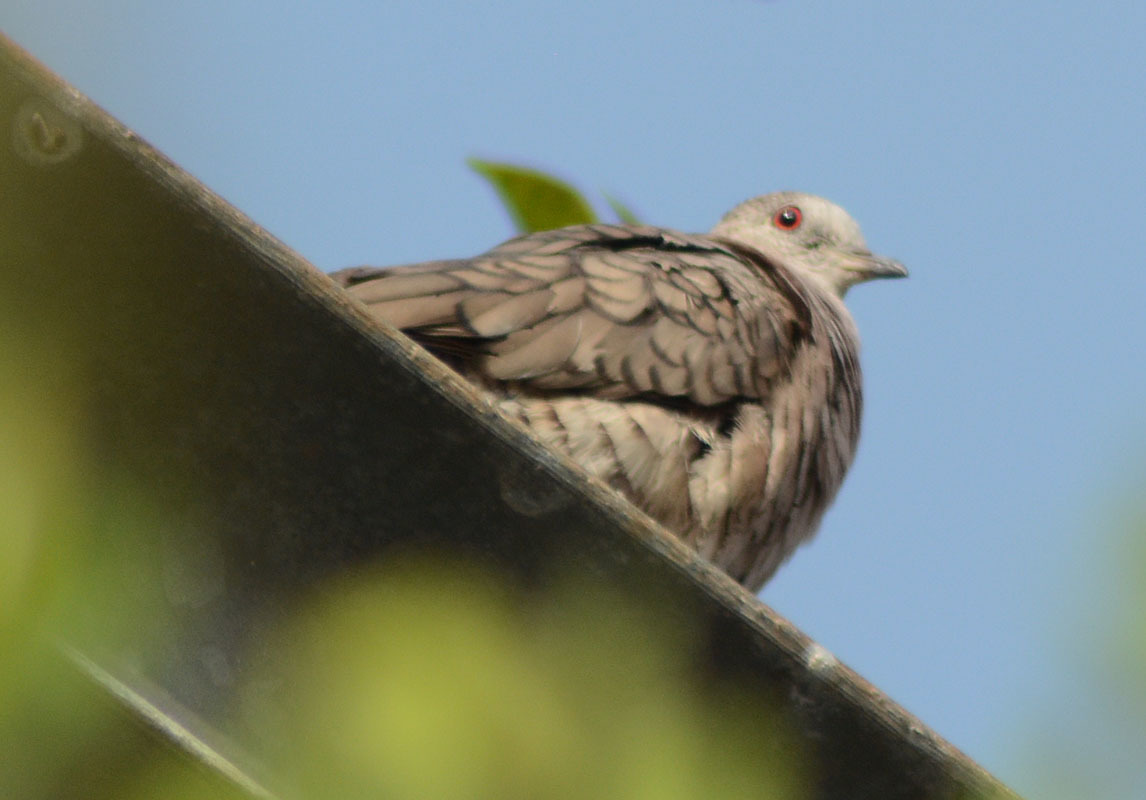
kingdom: Animalia
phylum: Chordata
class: Aves
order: Columbiformes
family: Columbidae
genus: Columbina
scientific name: Columbina inca
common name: Inca dove
